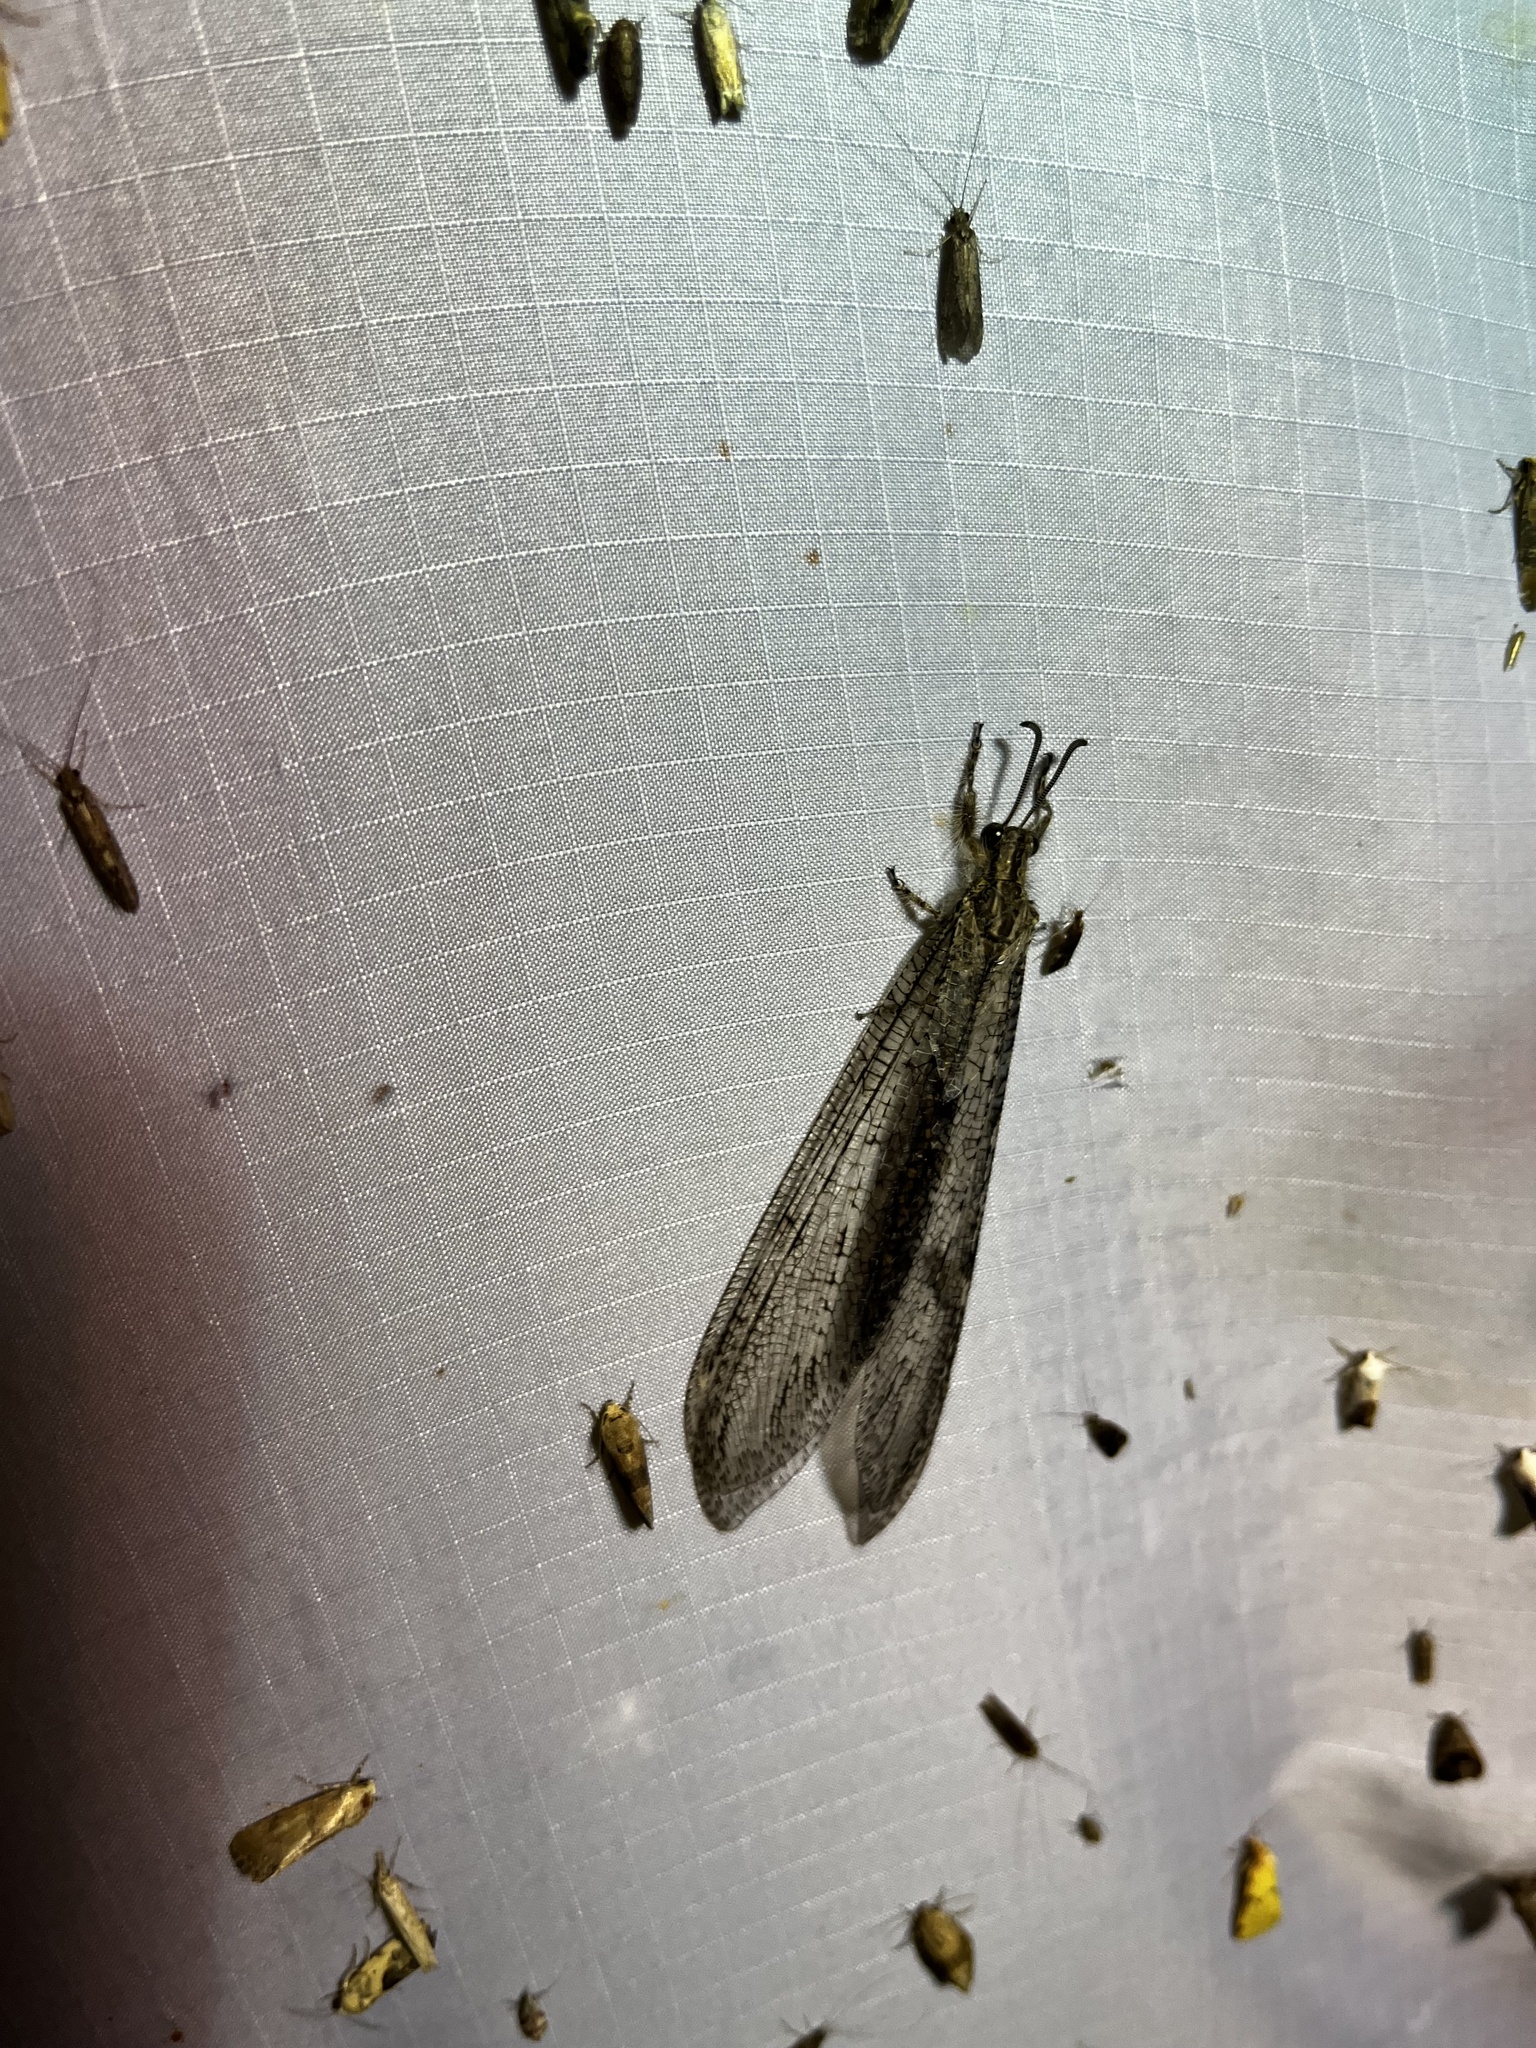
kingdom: Animalia
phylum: Arthropoda
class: Insecta
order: Neuroptera
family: Myrmeleontidae
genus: Vella
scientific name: Vella fallax
